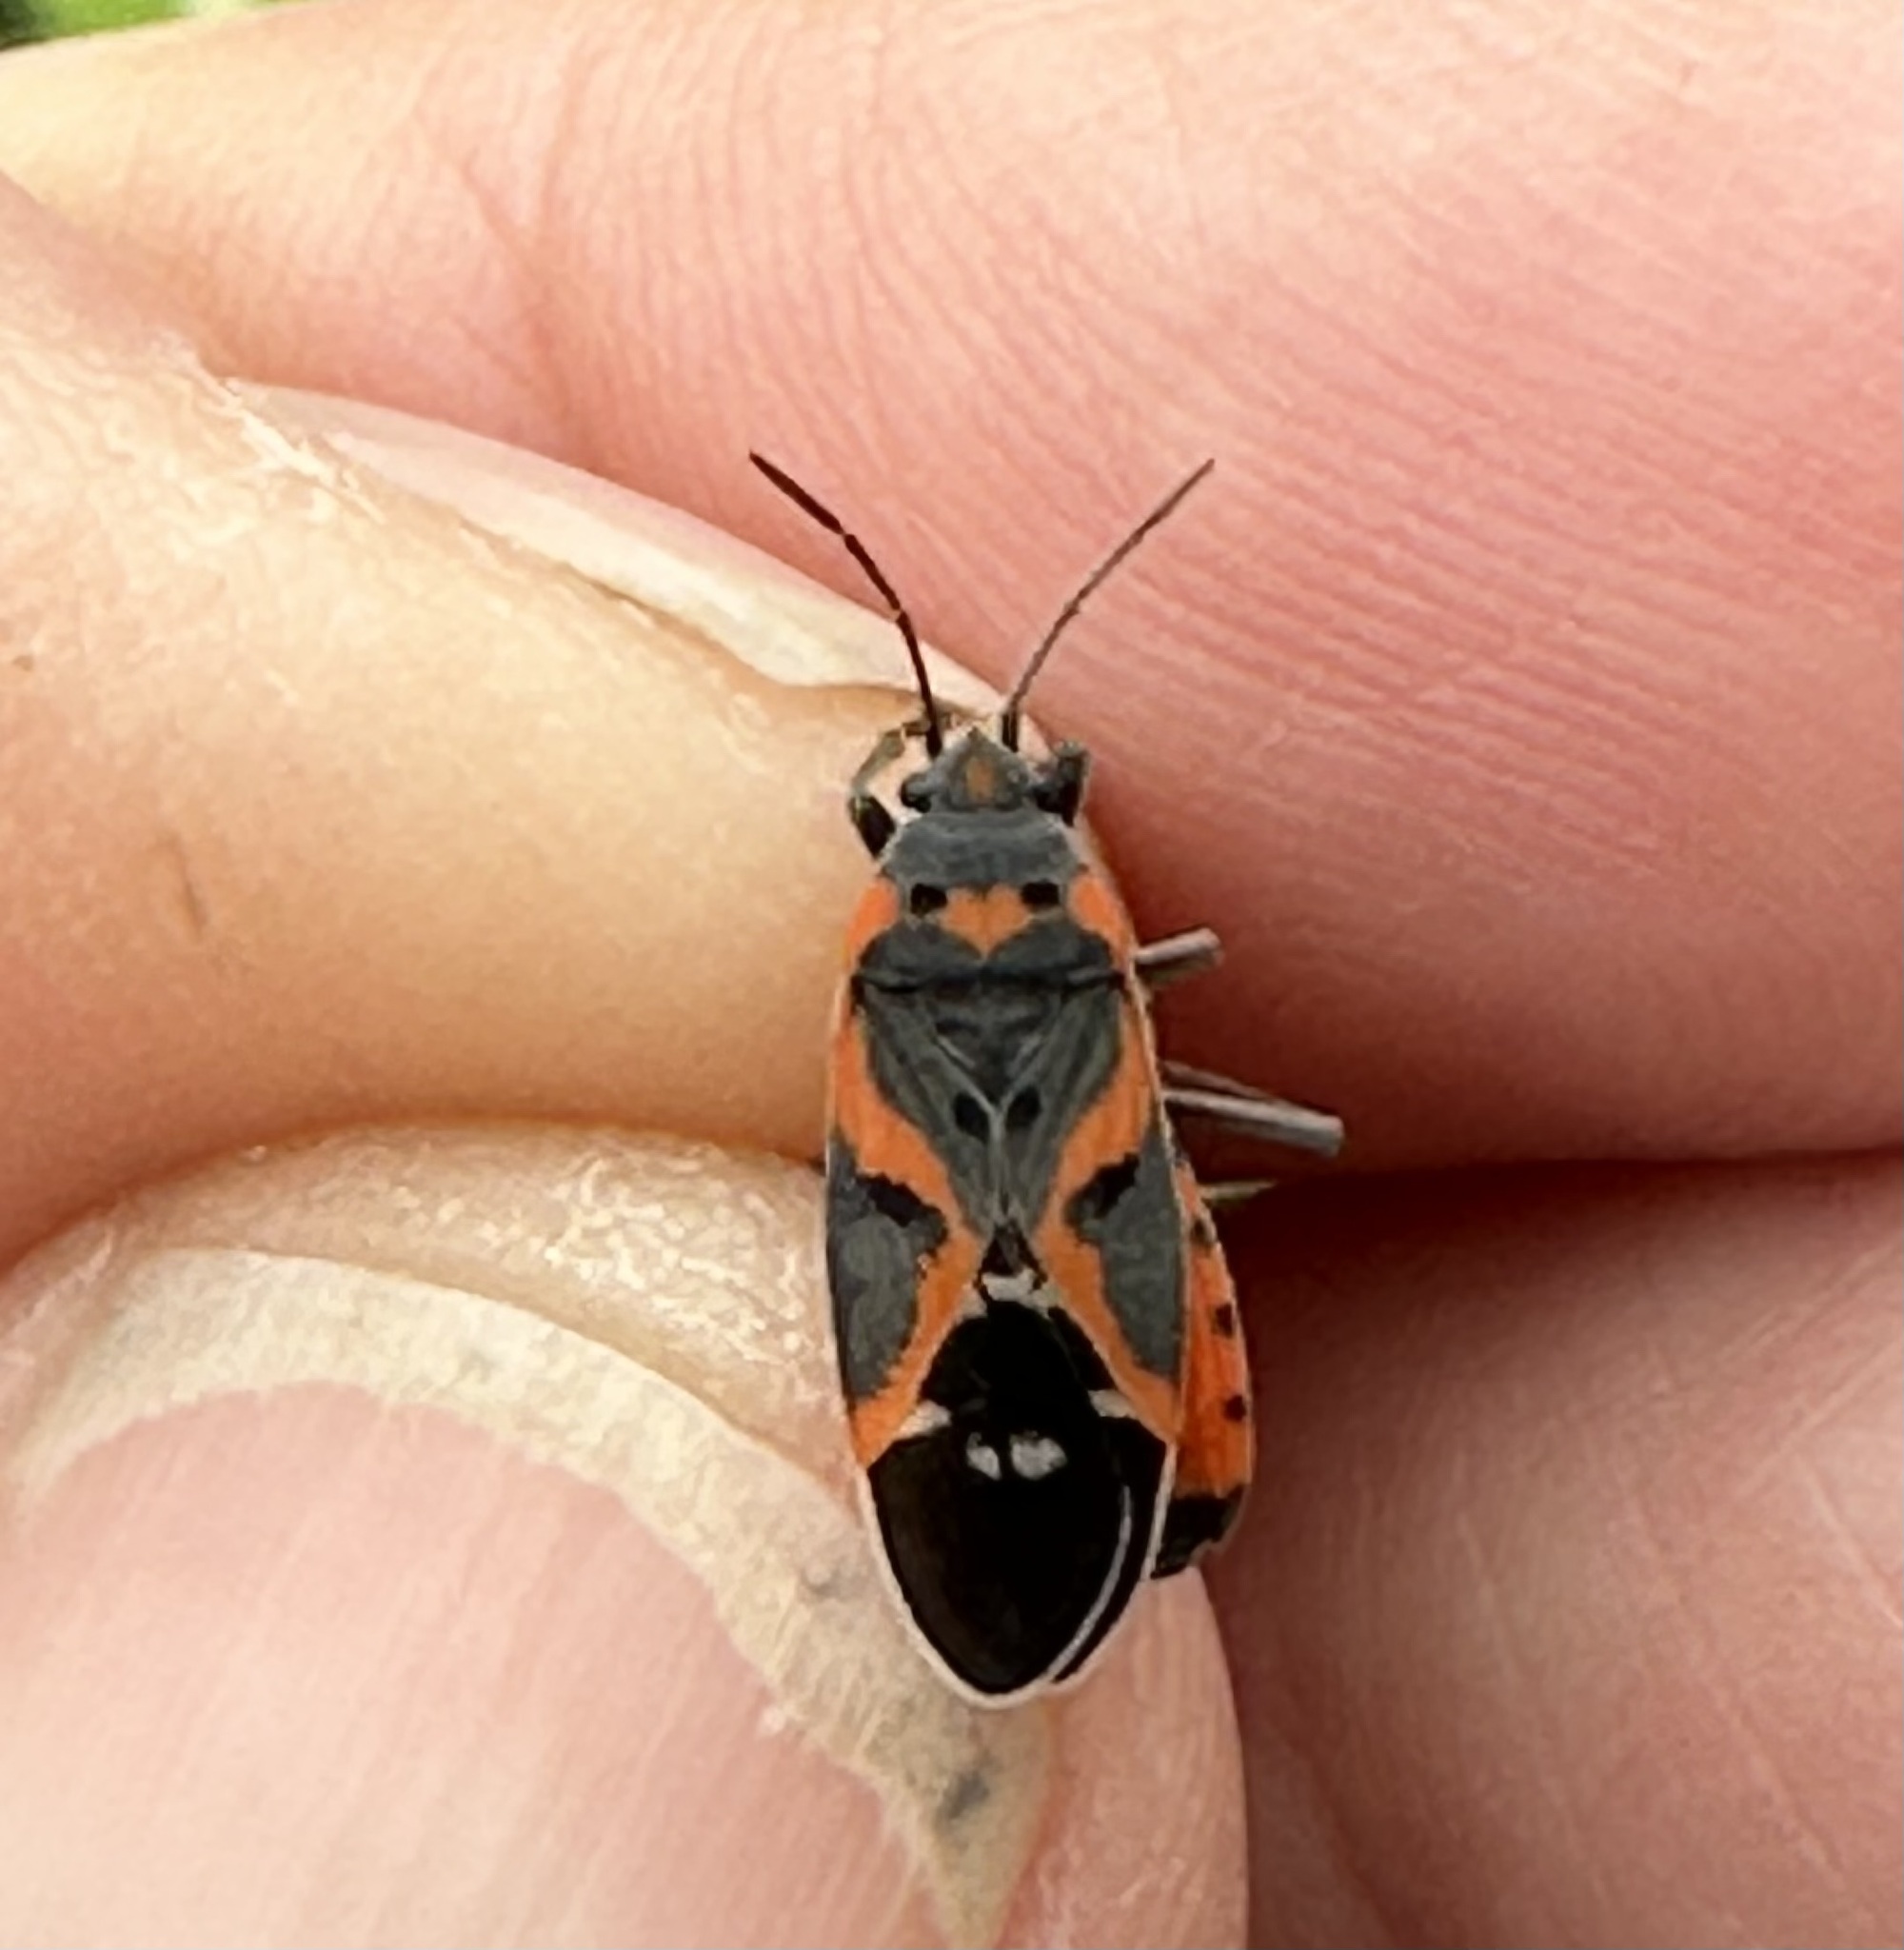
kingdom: Animalia
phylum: Arthropoda
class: Insecta
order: Hemiptera
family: Lygaeidae
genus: Lygaeus
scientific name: Lygaeus kalmii
